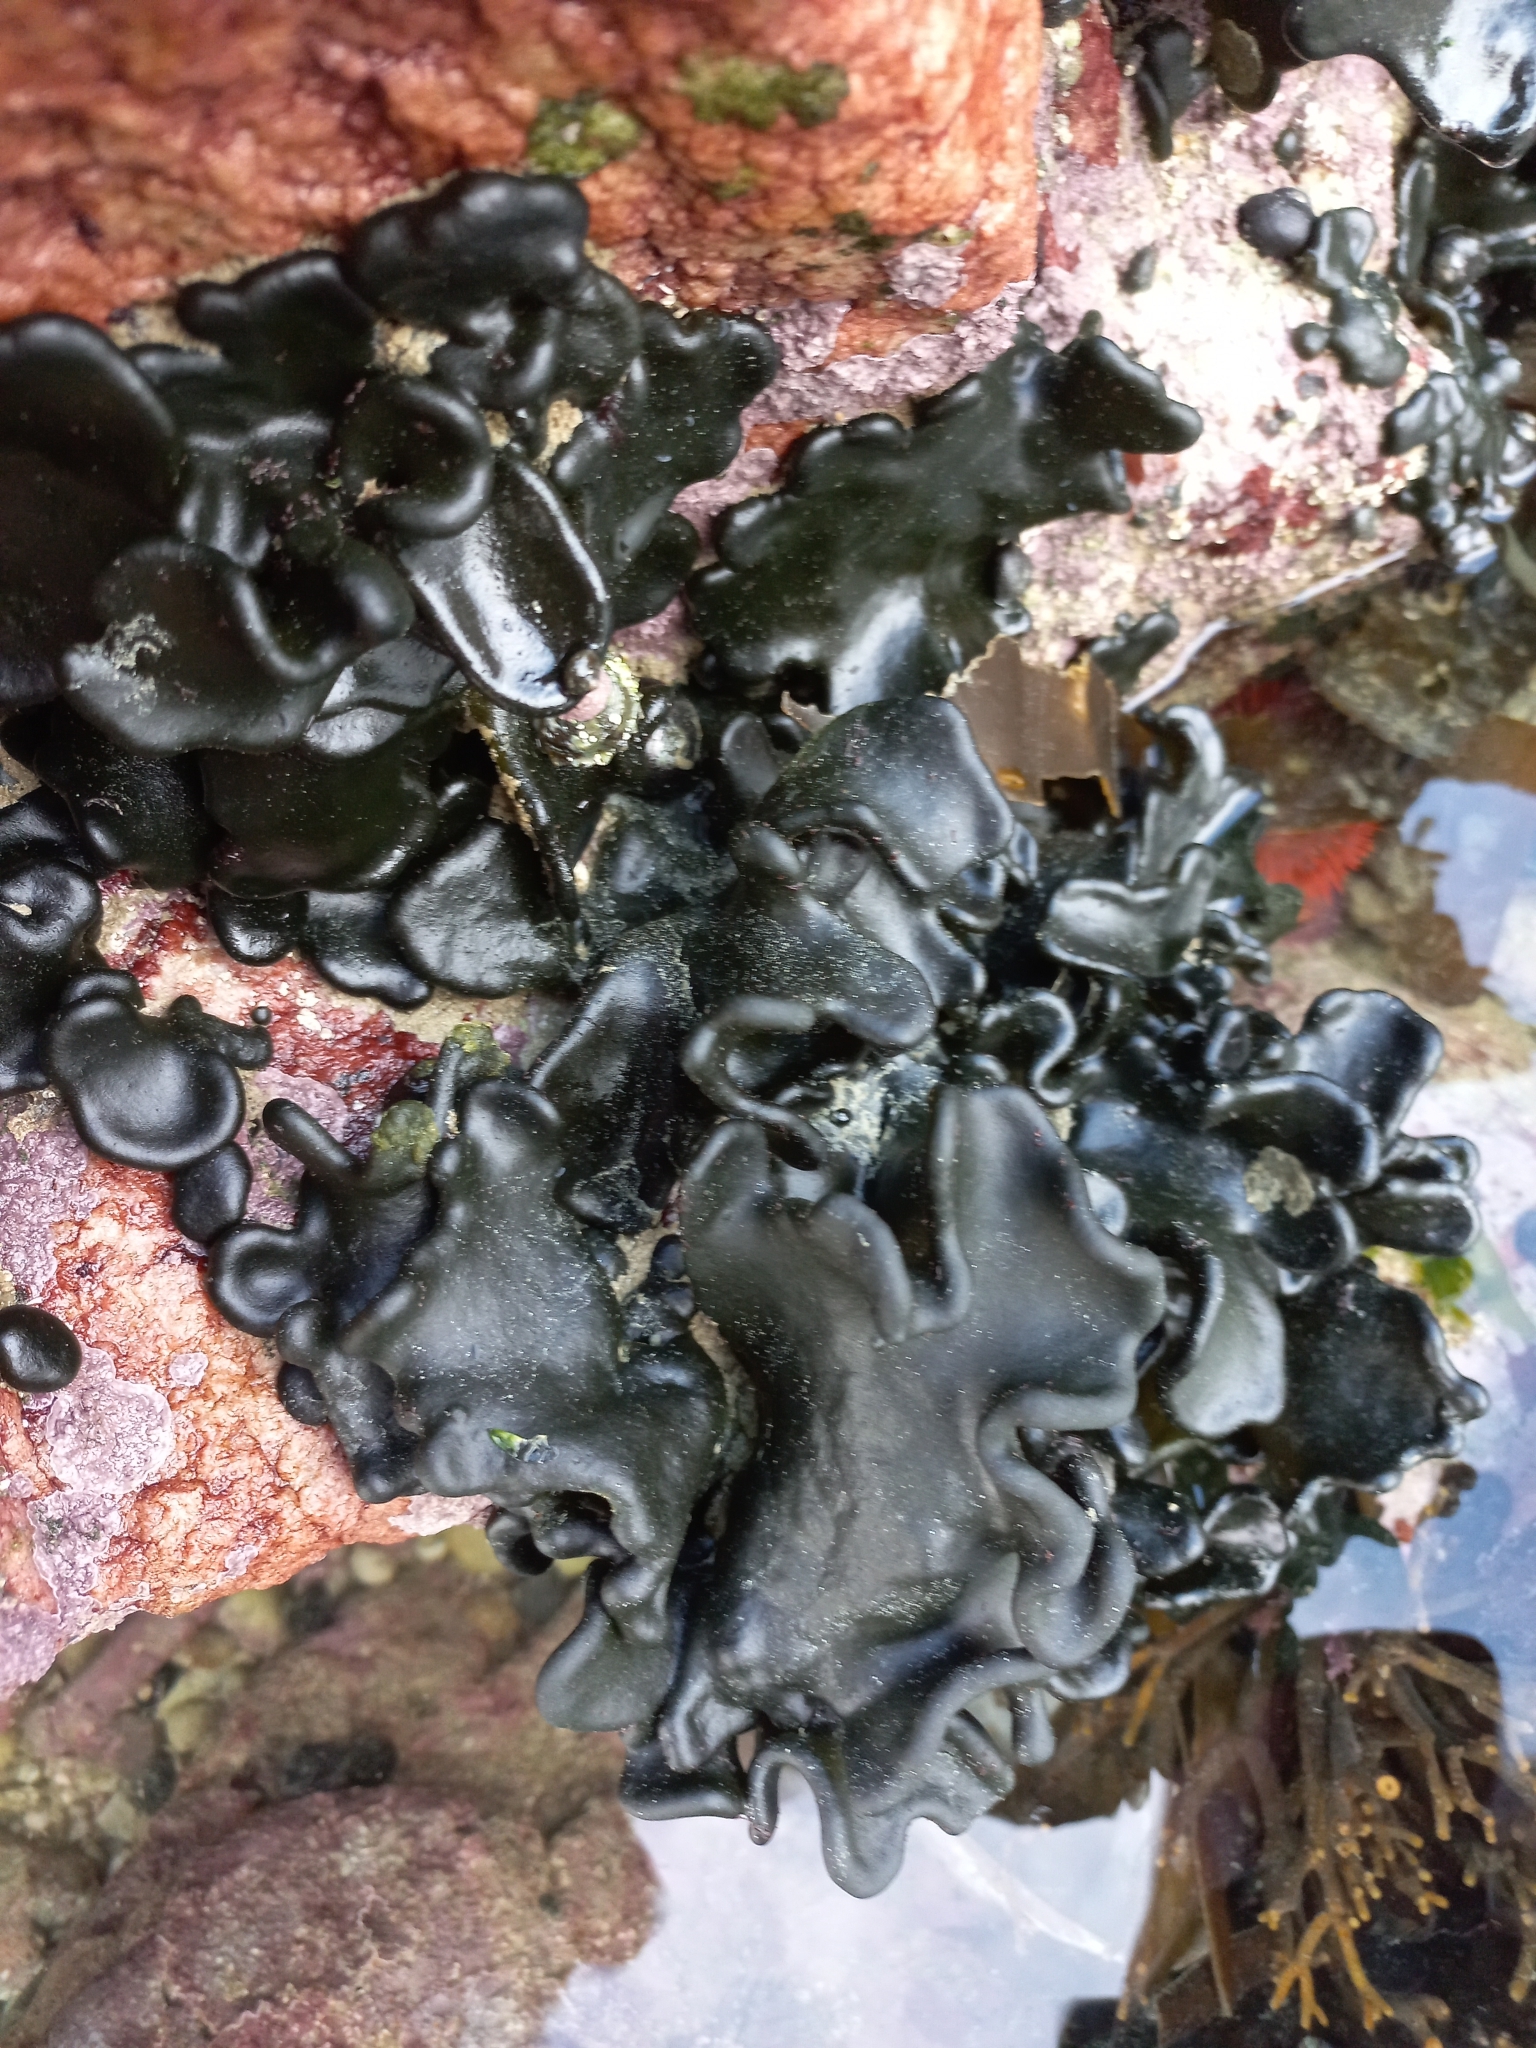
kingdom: Plantae
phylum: Chlorophyta
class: Ulvophyceae
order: Bryopsidales
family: Codiaceae
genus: Codium
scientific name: Codium
